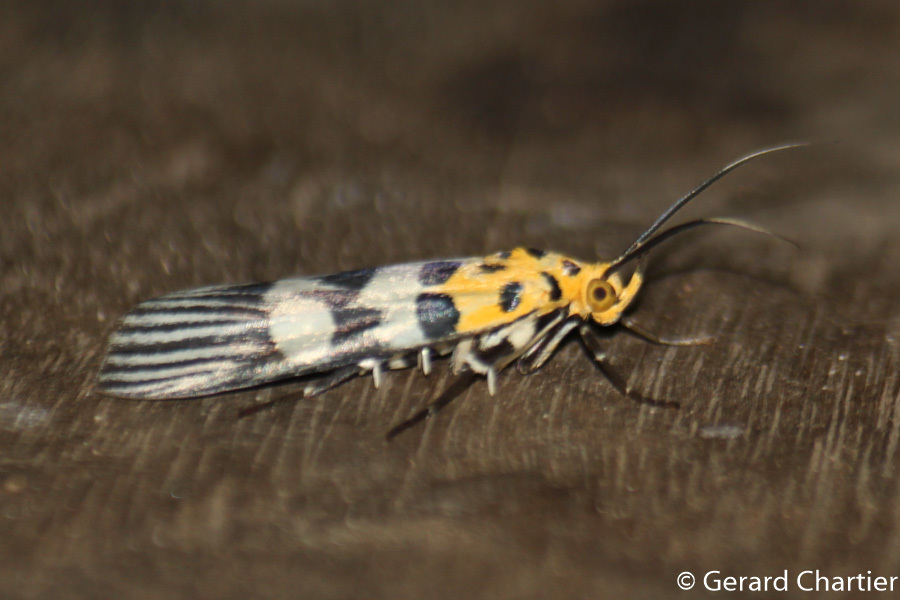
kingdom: Animalia
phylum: Arthropoda
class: Insecta
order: Lepidoptera
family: Pyralidae
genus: Vitessa
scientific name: Vitessa suradeva
